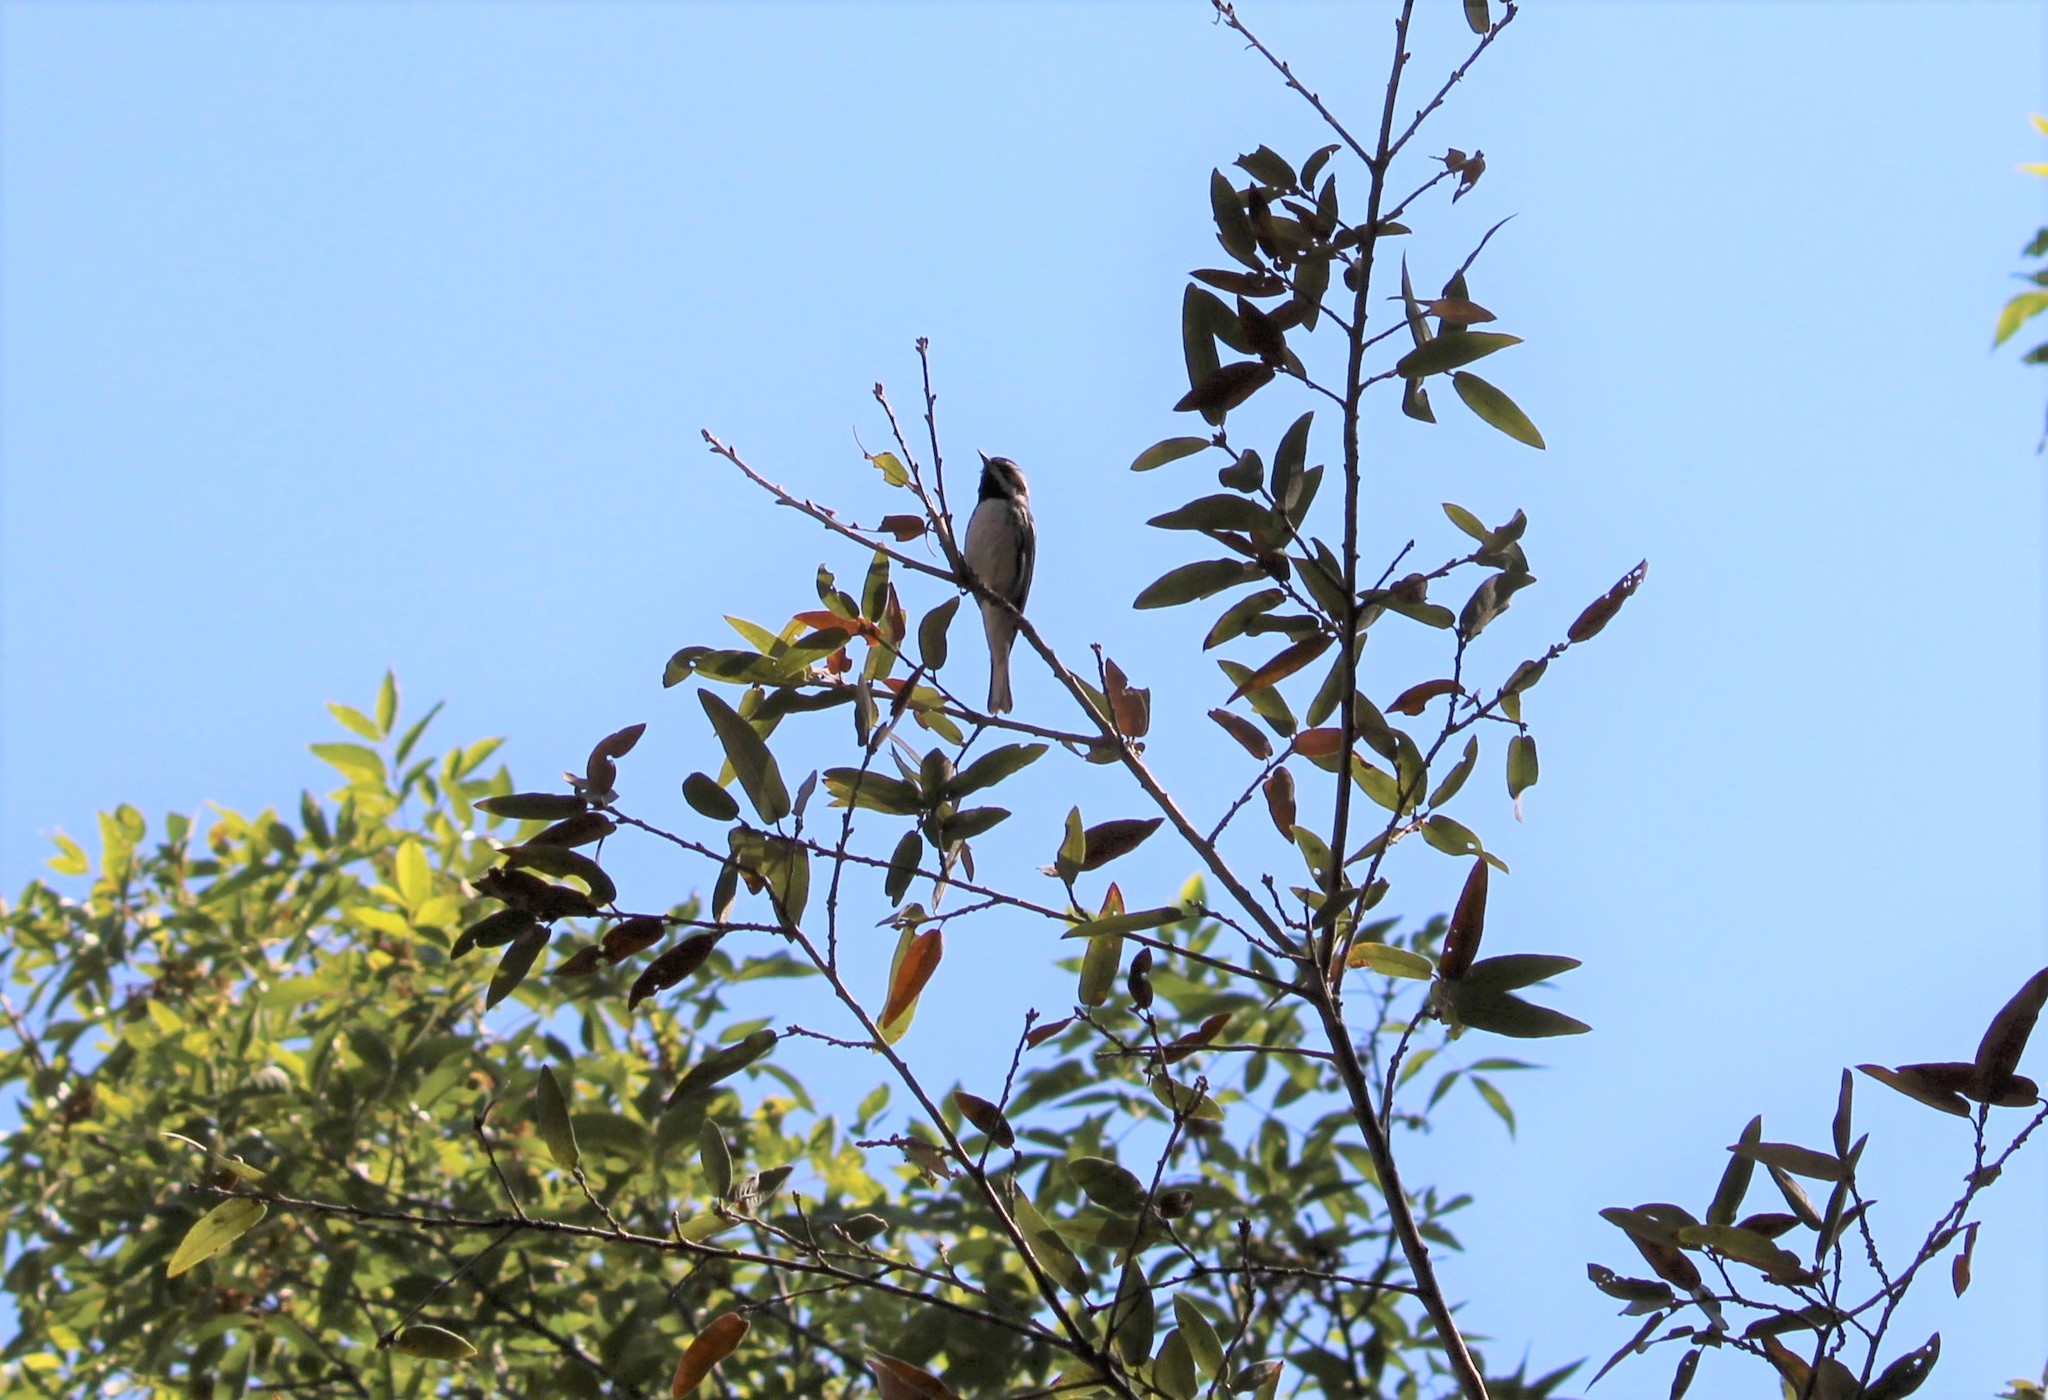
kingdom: Animalia
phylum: Chordata
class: Aves
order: Passeriformes
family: Parulidae
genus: Setophaga
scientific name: Setophaga nigrescens
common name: Black-throated gray warbler
